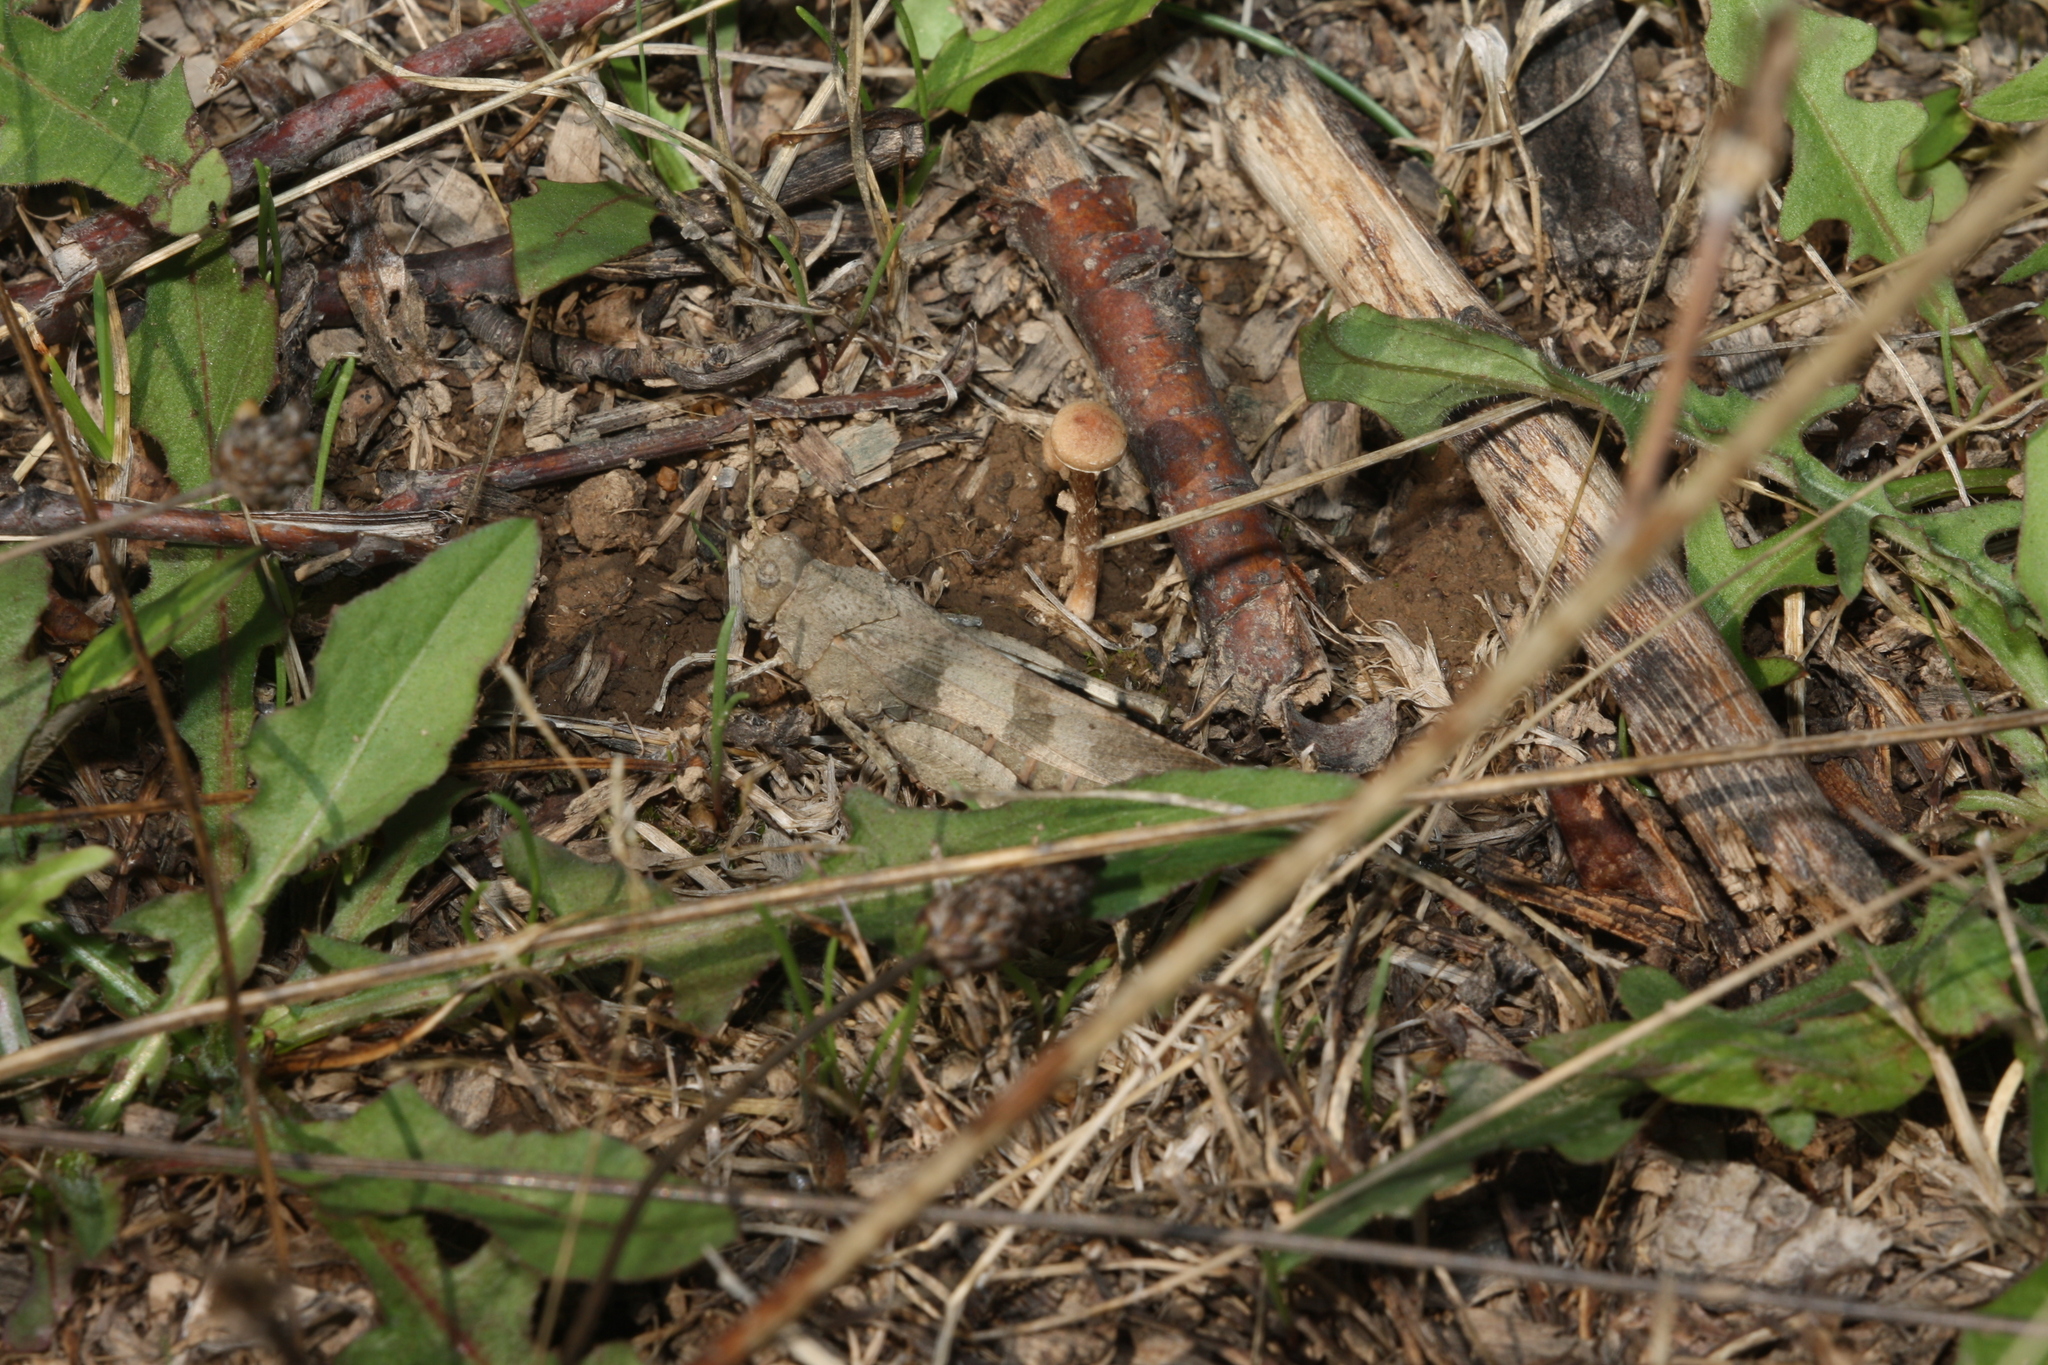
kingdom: Animalia
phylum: Arthropoda
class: Insecta
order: Orthoptera
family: Acrididae
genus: Oedipoda
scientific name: Oedipoda caerulescens
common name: Blue-winged grasshopper
